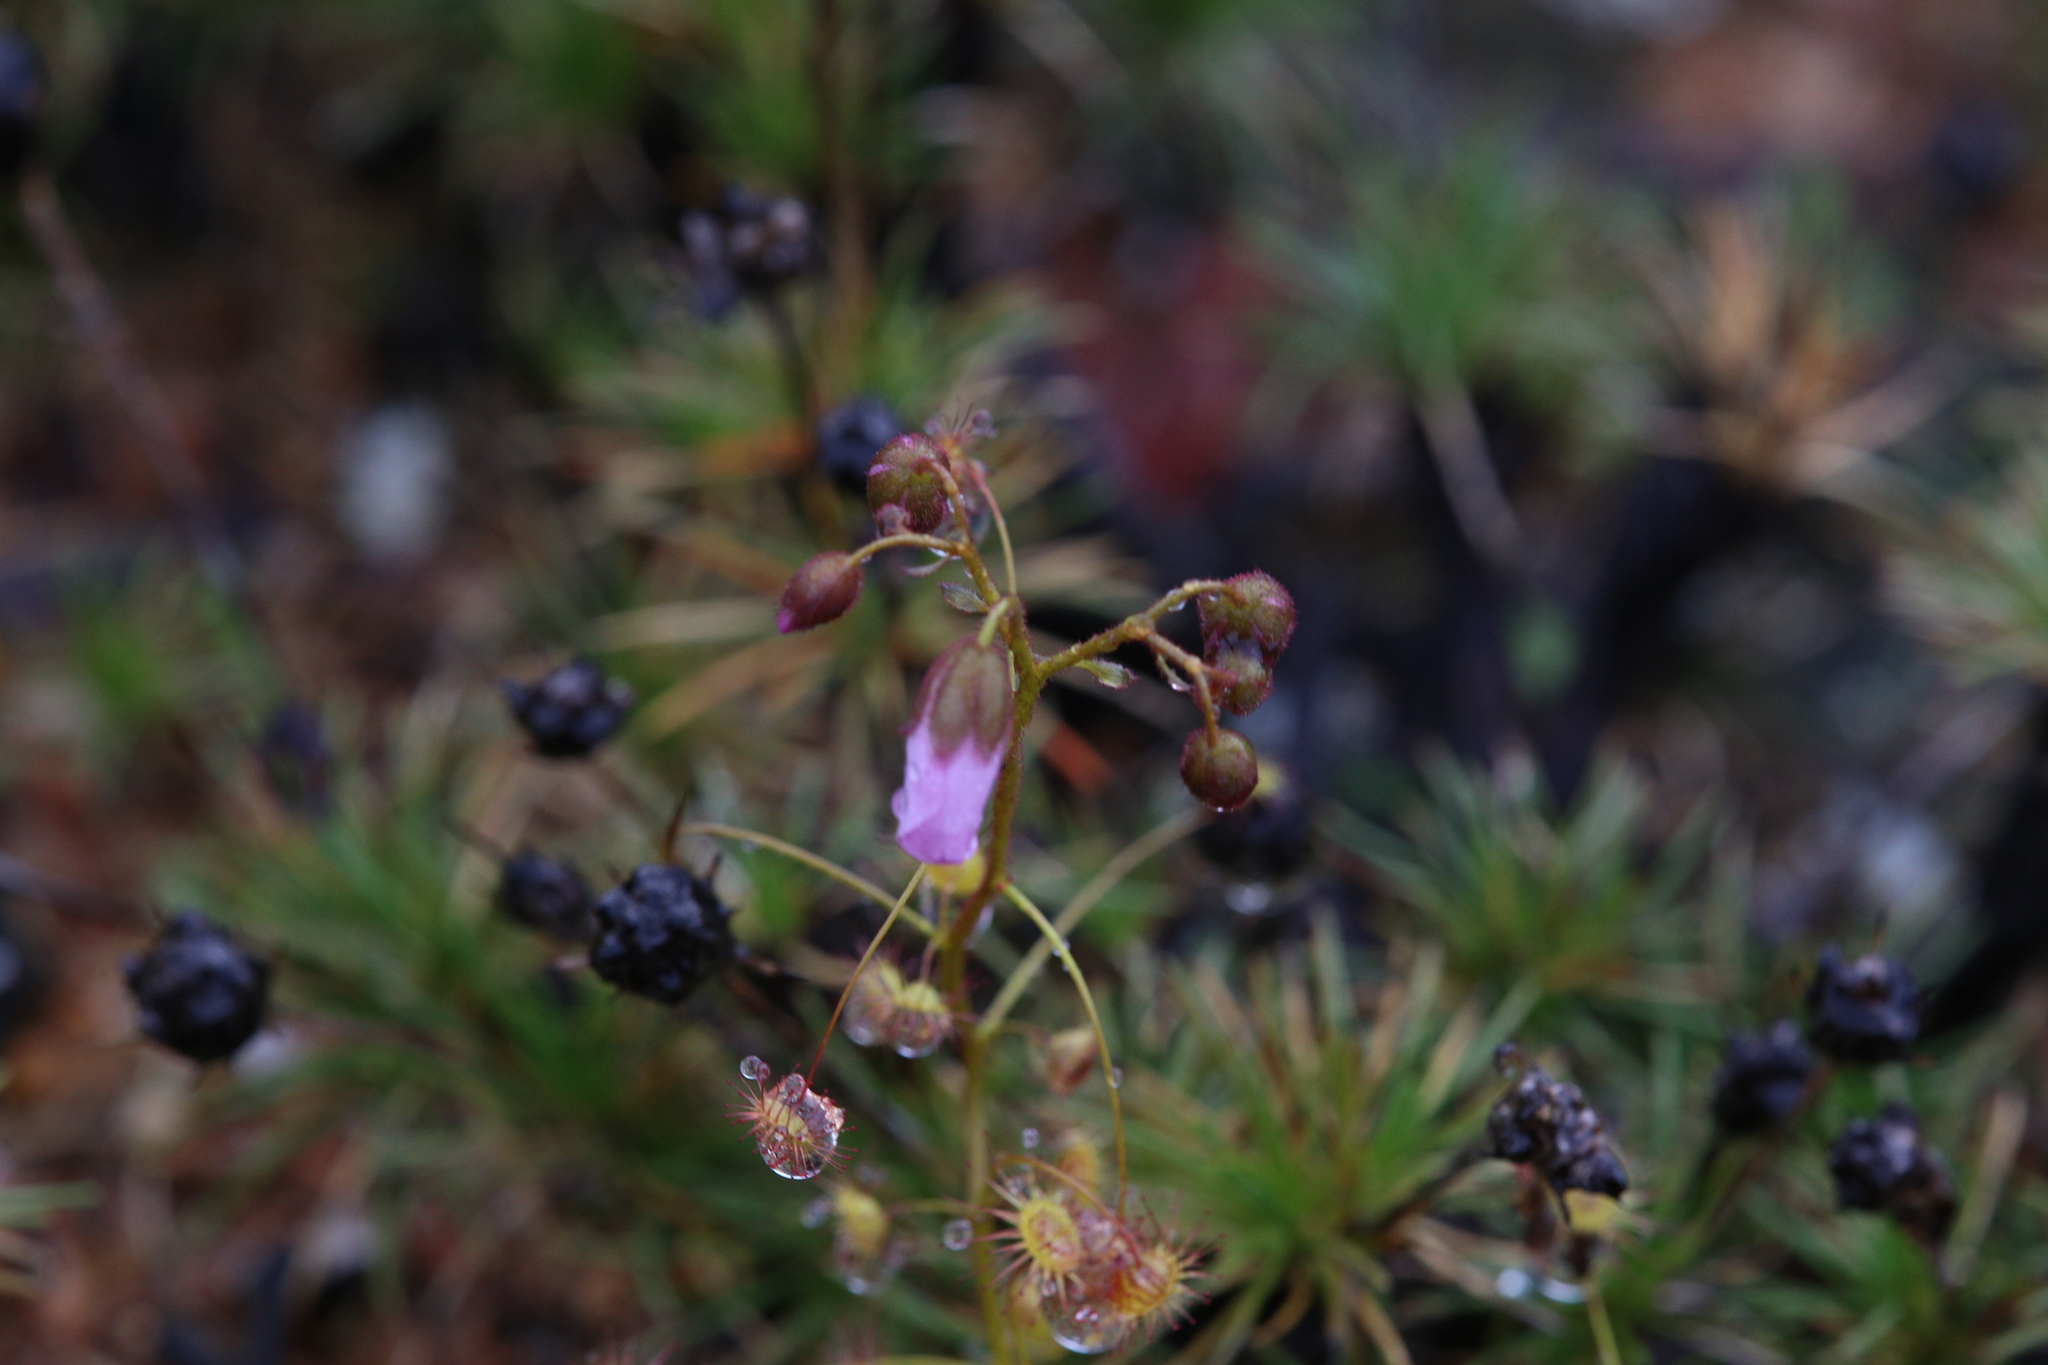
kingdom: Plantae
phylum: Tracheophyta
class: Magnoliopsida
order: Caryophyllales
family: Droseraceae
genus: Drosera
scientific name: Drosera stricticaulis
